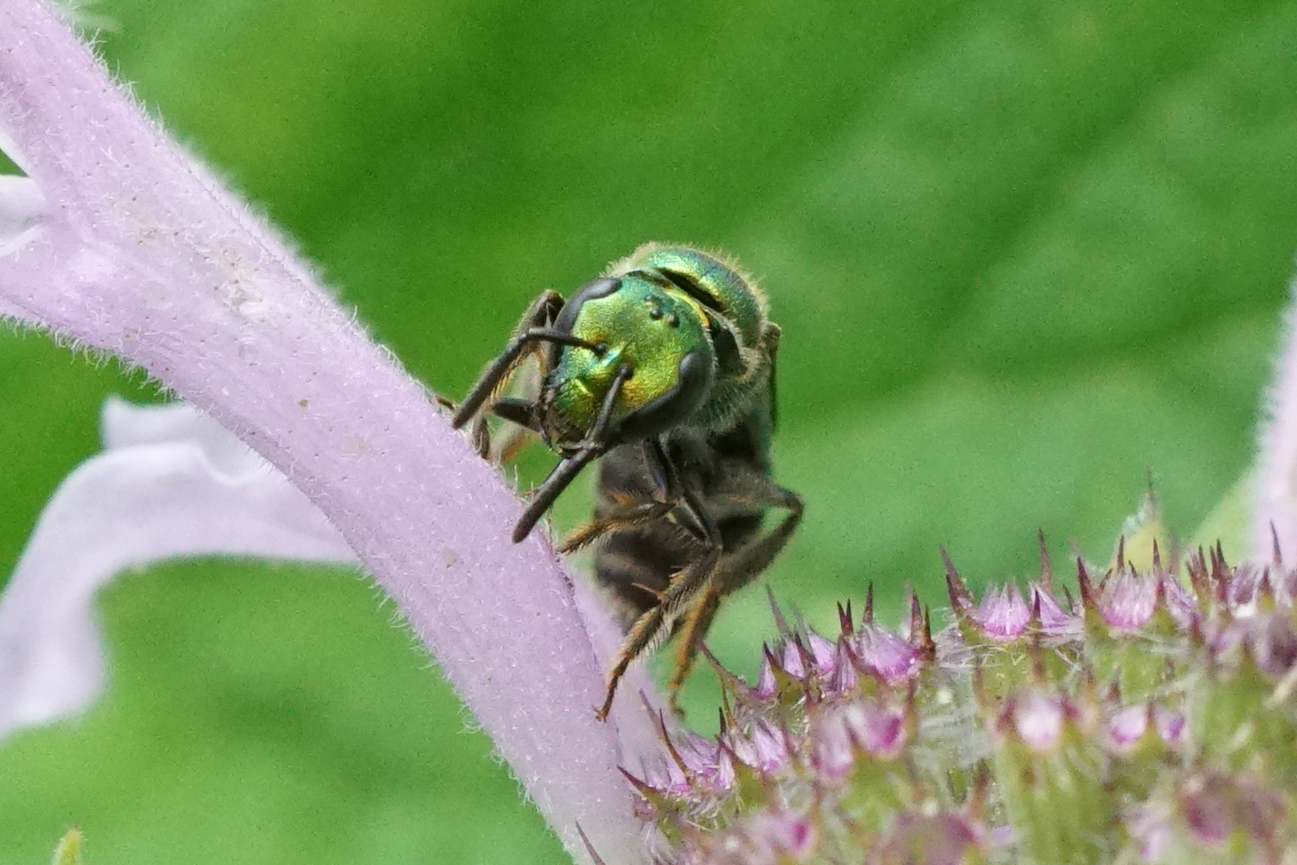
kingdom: Animalia
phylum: Arthropoda
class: Insecta
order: Hymenoptera
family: Halictidae
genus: Augochlora
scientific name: Augochlora pura
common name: Pure green sweat bee
